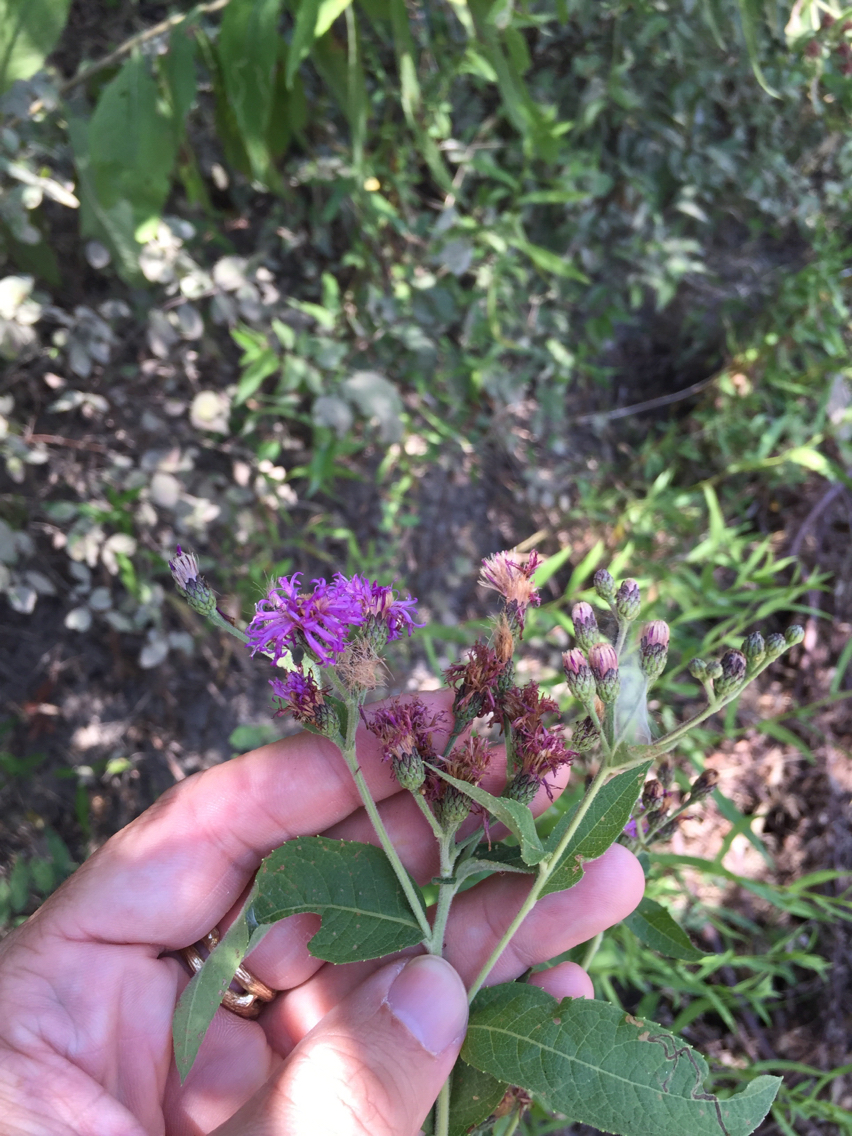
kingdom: Plantae
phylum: Tracheophyta
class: Magnoliopsida
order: Asterales
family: Asteraceae
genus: Vernonia
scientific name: Vernonia baldwinii
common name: Western ironweed
